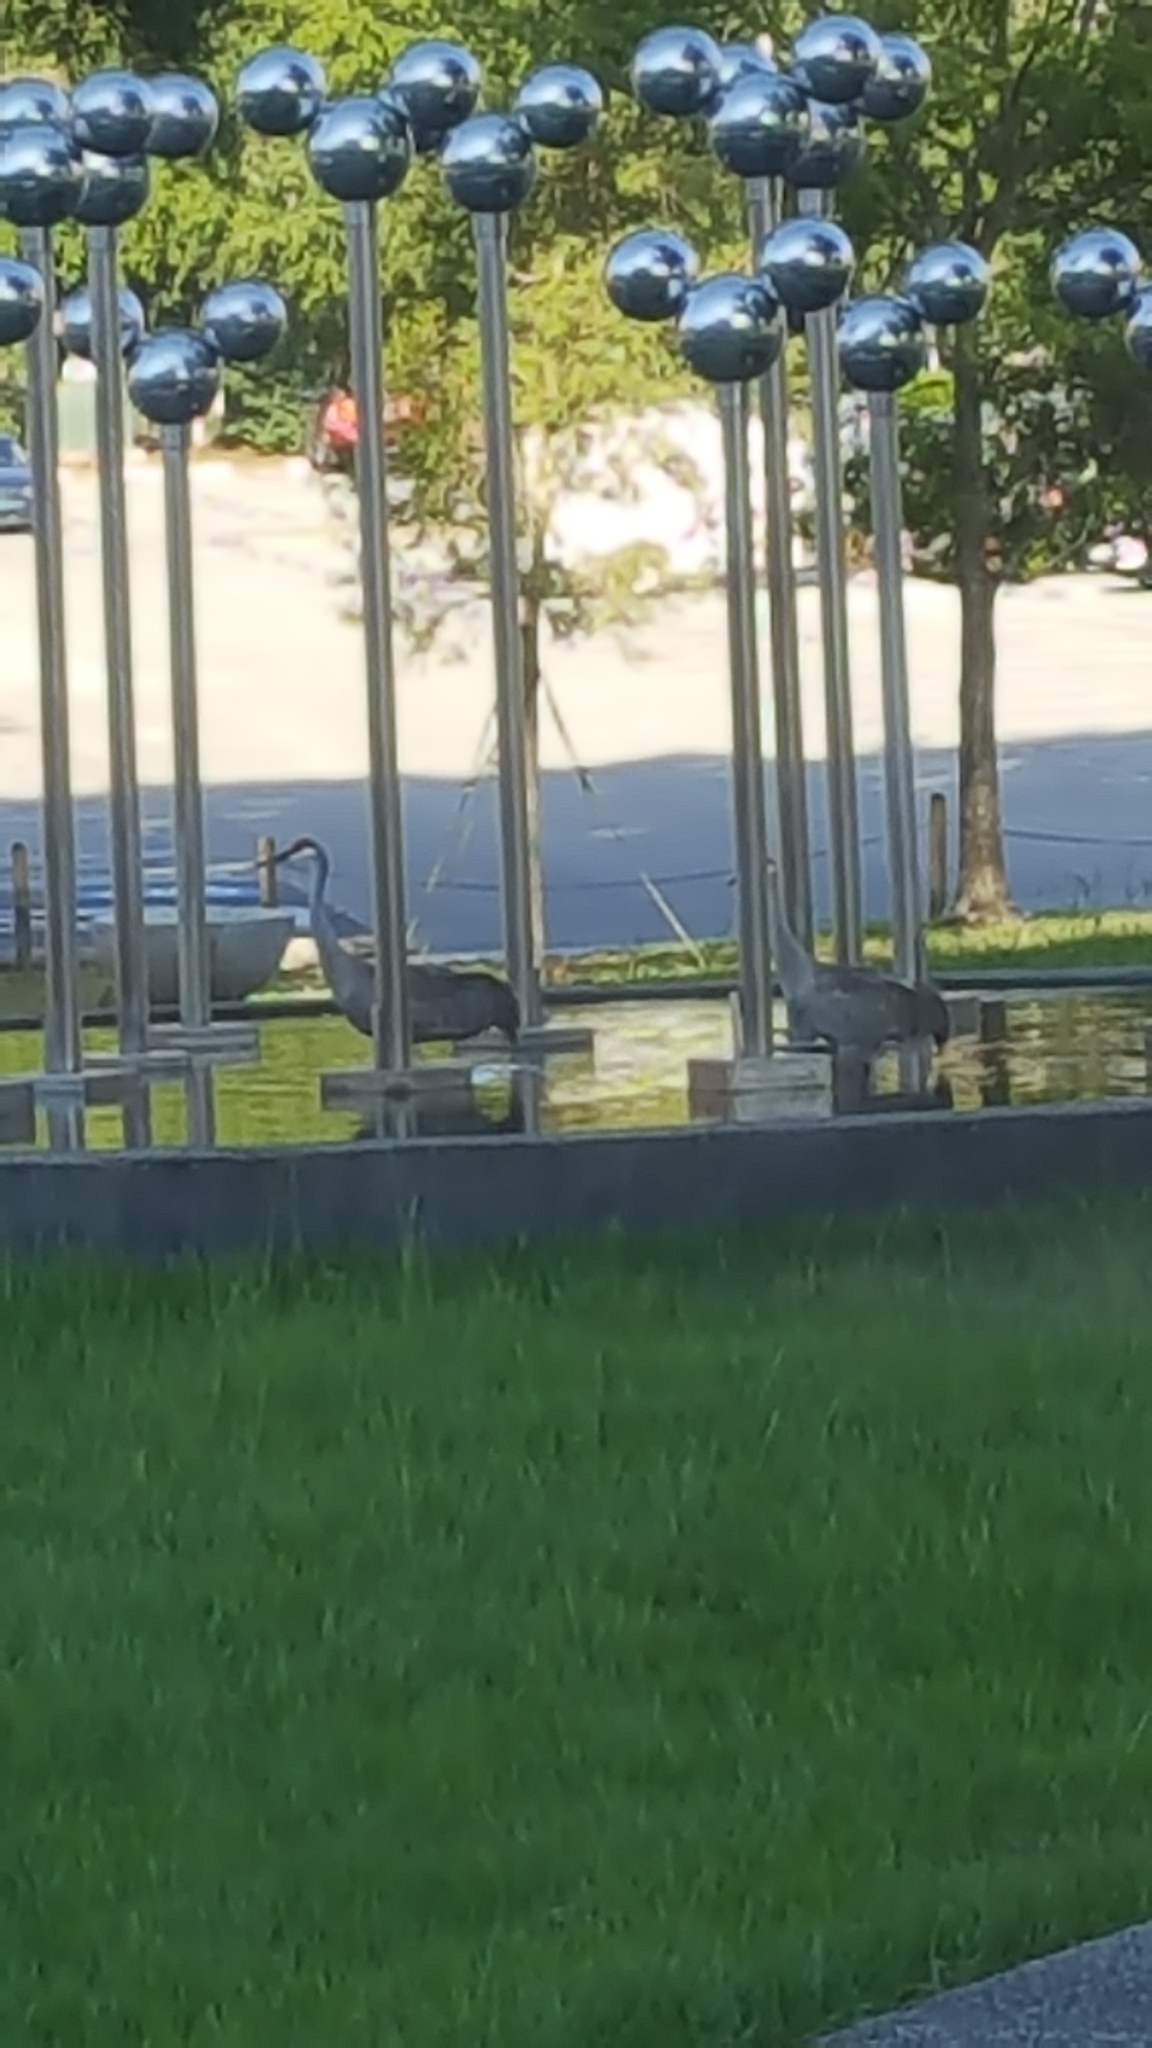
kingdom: Animalia
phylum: Chordata
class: Aves
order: Gruiformes
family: Gruidae
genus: Grus
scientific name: Grus canadensis
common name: Sandhill crane
